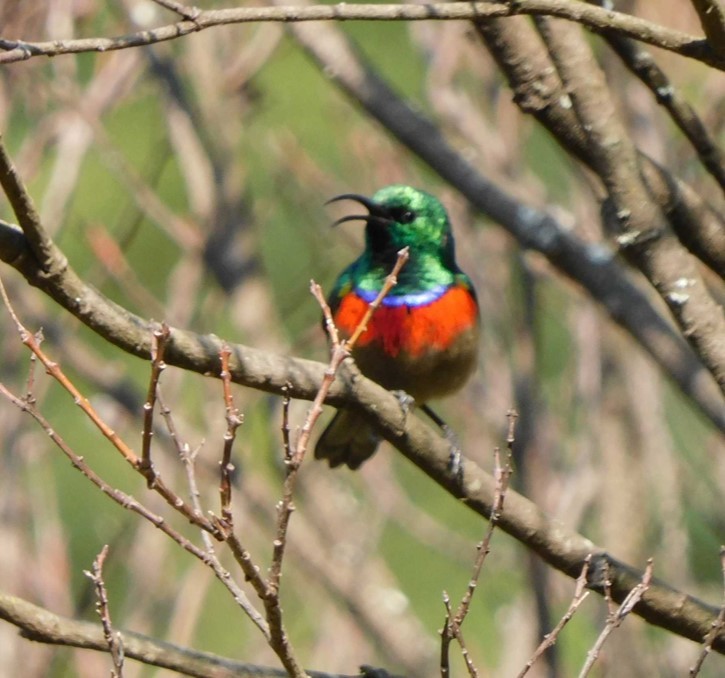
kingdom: Animalia
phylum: Chordata
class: Aves
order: Passeriformes
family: Nectariniidae
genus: Cinnyris
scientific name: Cinnyris afer
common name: Greater double-collared sunbird
